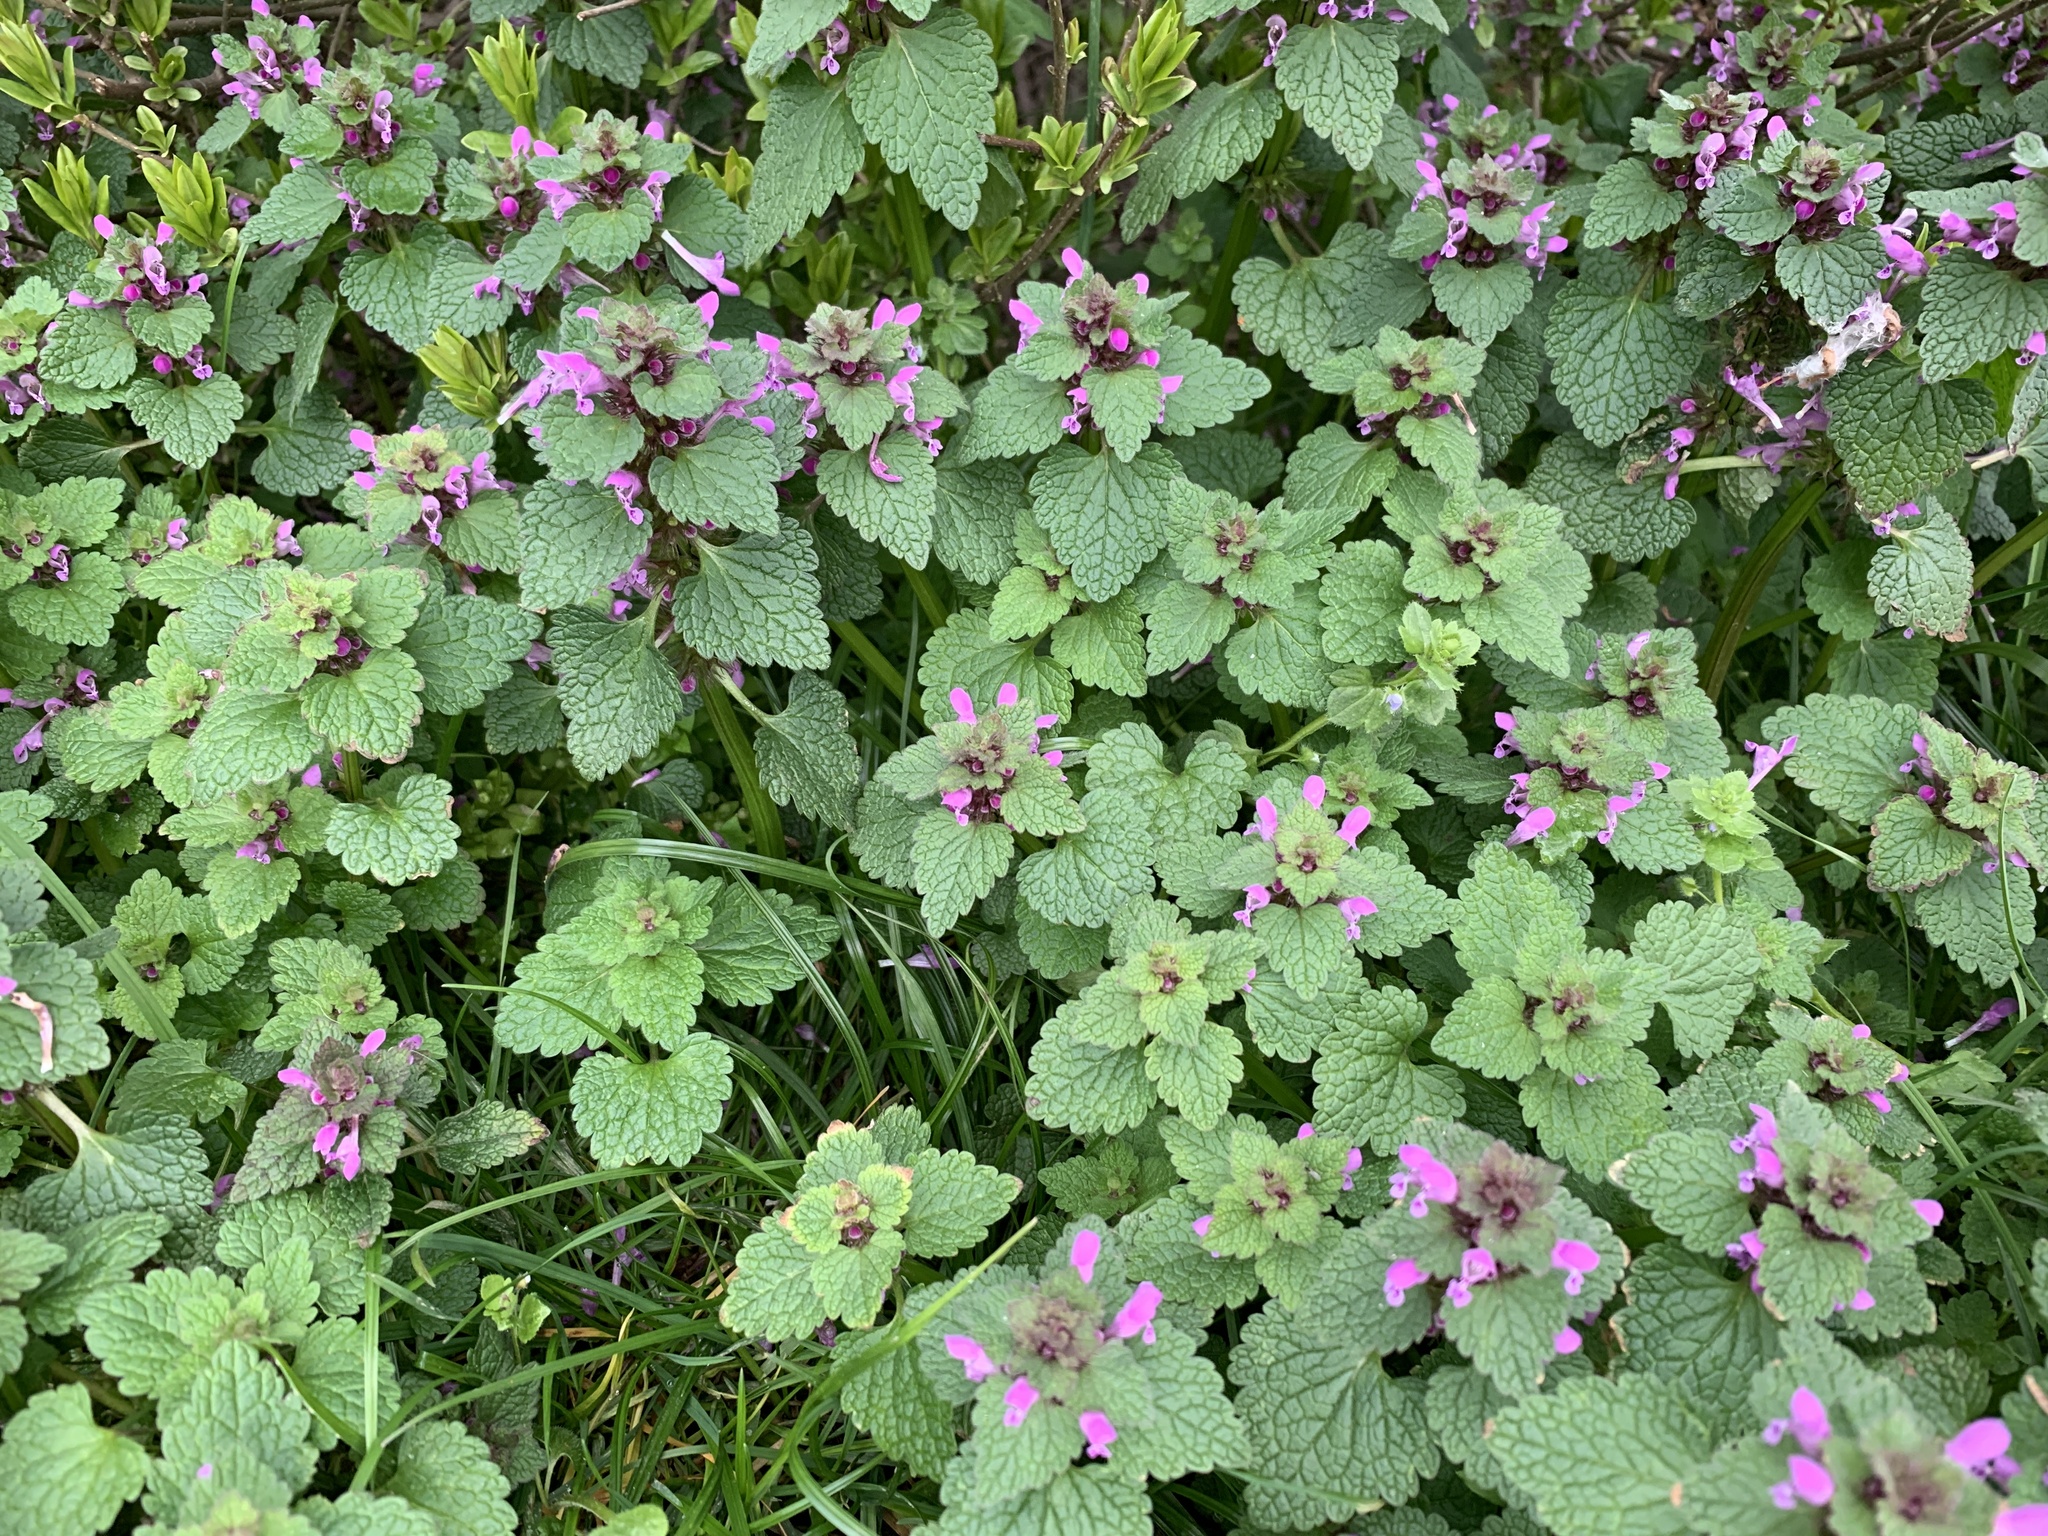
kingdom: Plantae
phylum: Tracheophyta
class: Magnoliopsida
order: Lamiales
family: Lamiaceae
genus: Lamium
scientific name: Lamium purpureum
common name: Red dead-nettle
